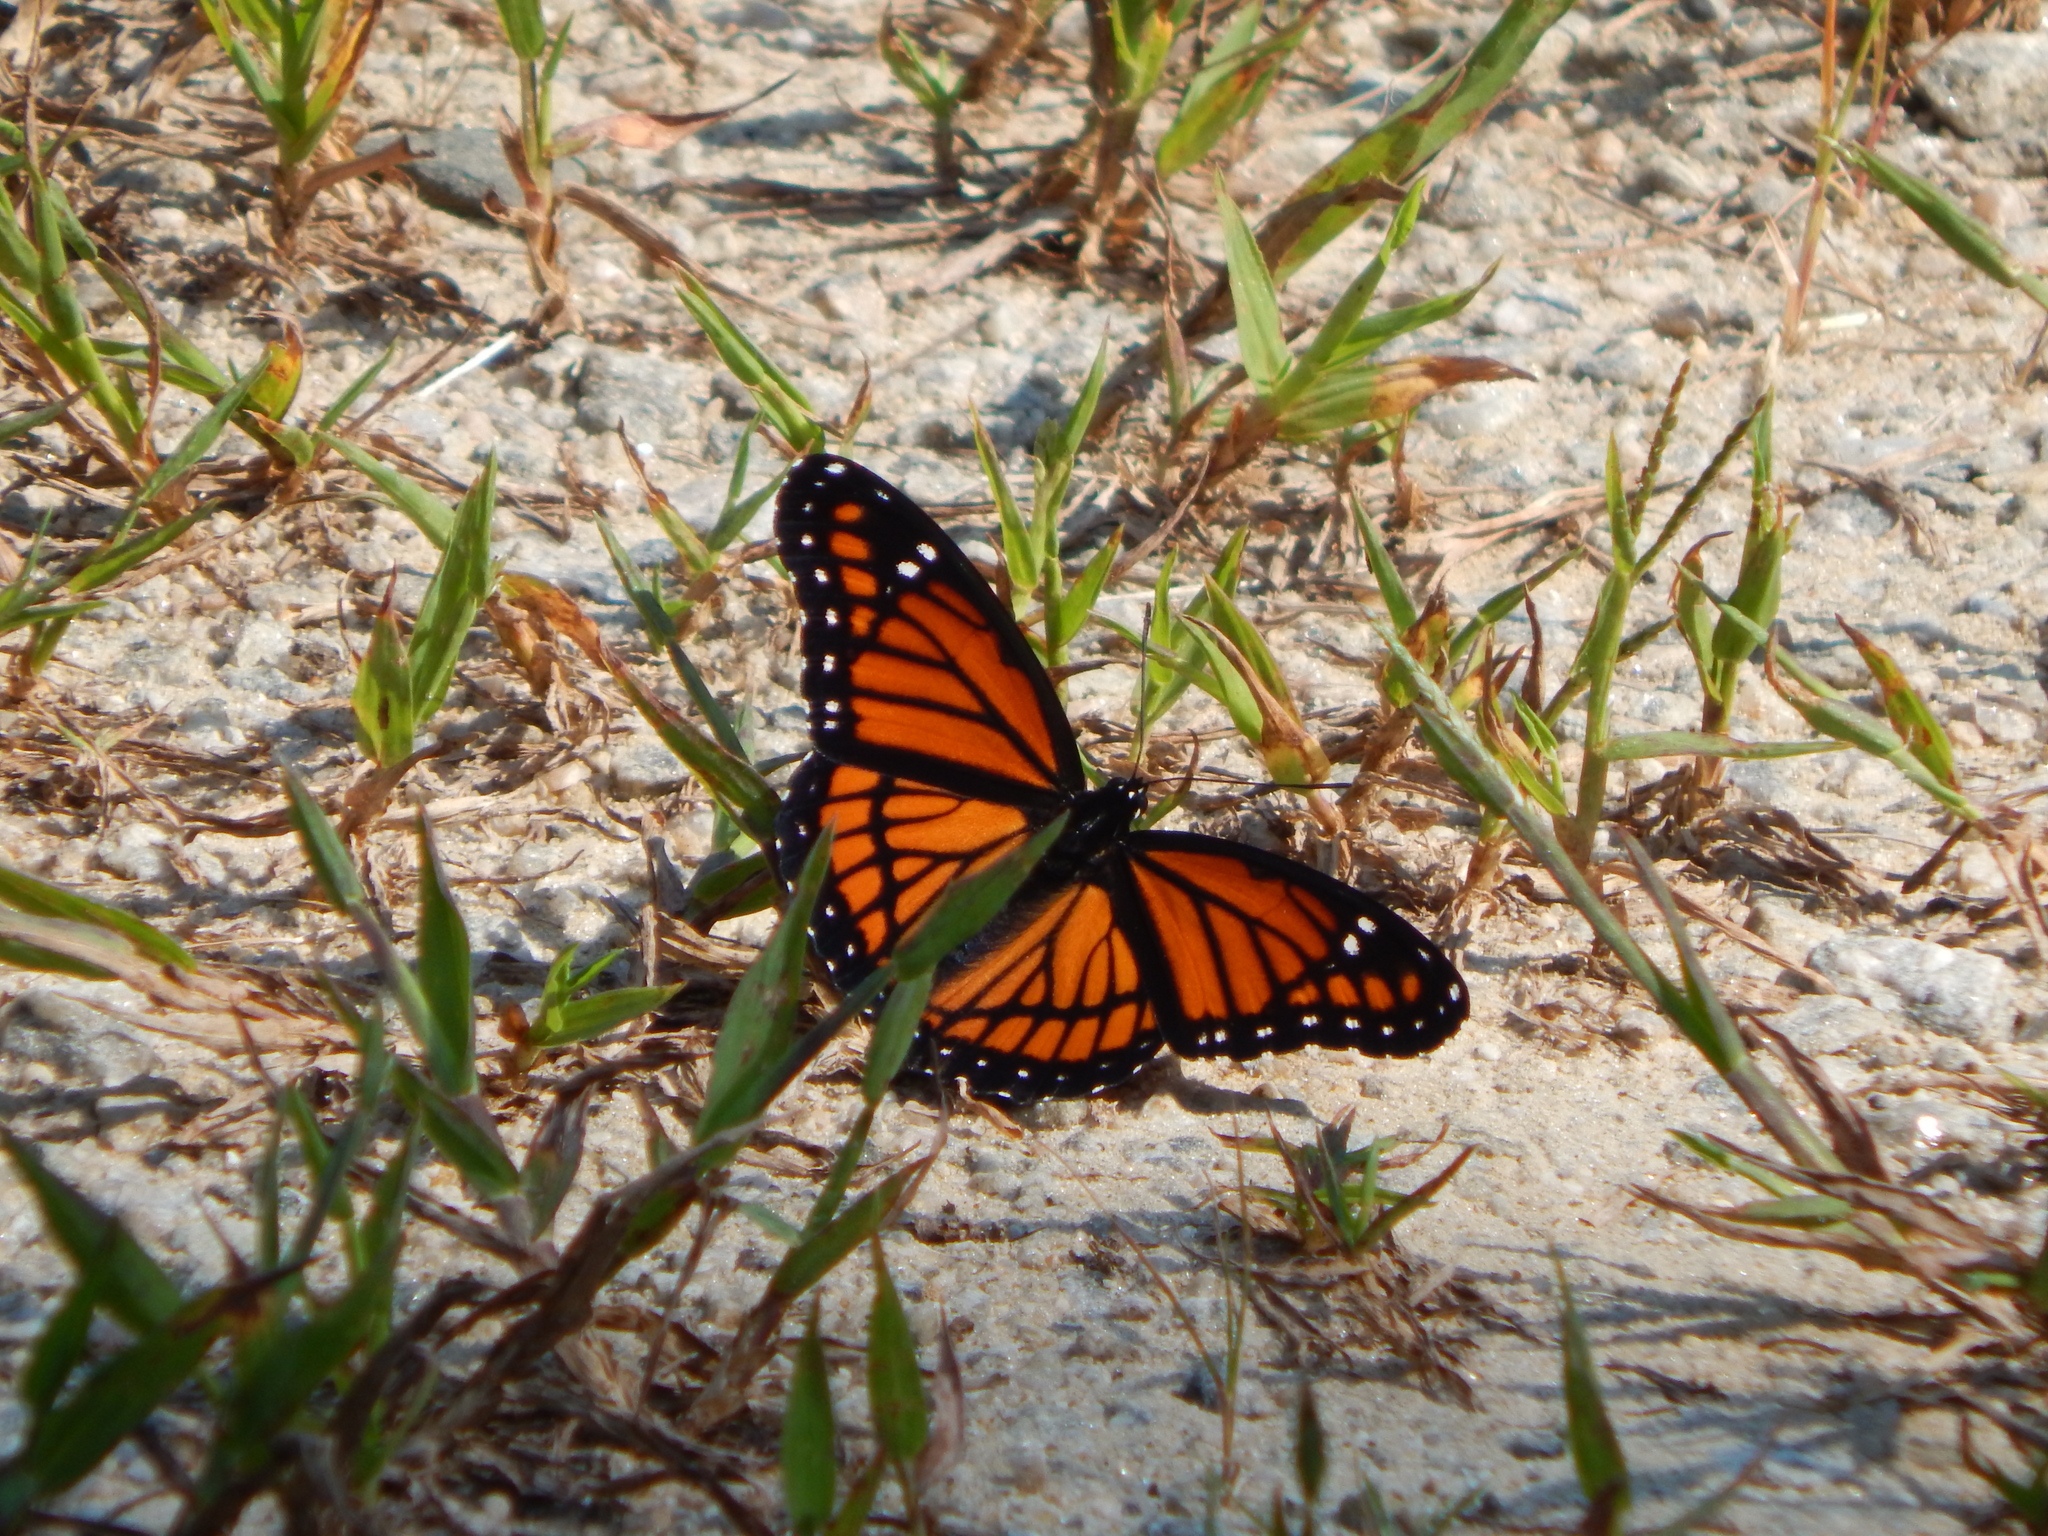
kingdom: Animalia
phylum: Arthropoda
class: Insecta
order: Lepidoptera
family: Nymphalidae
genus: Limenitis
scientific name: Limenitis archippus
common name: Viceroy
